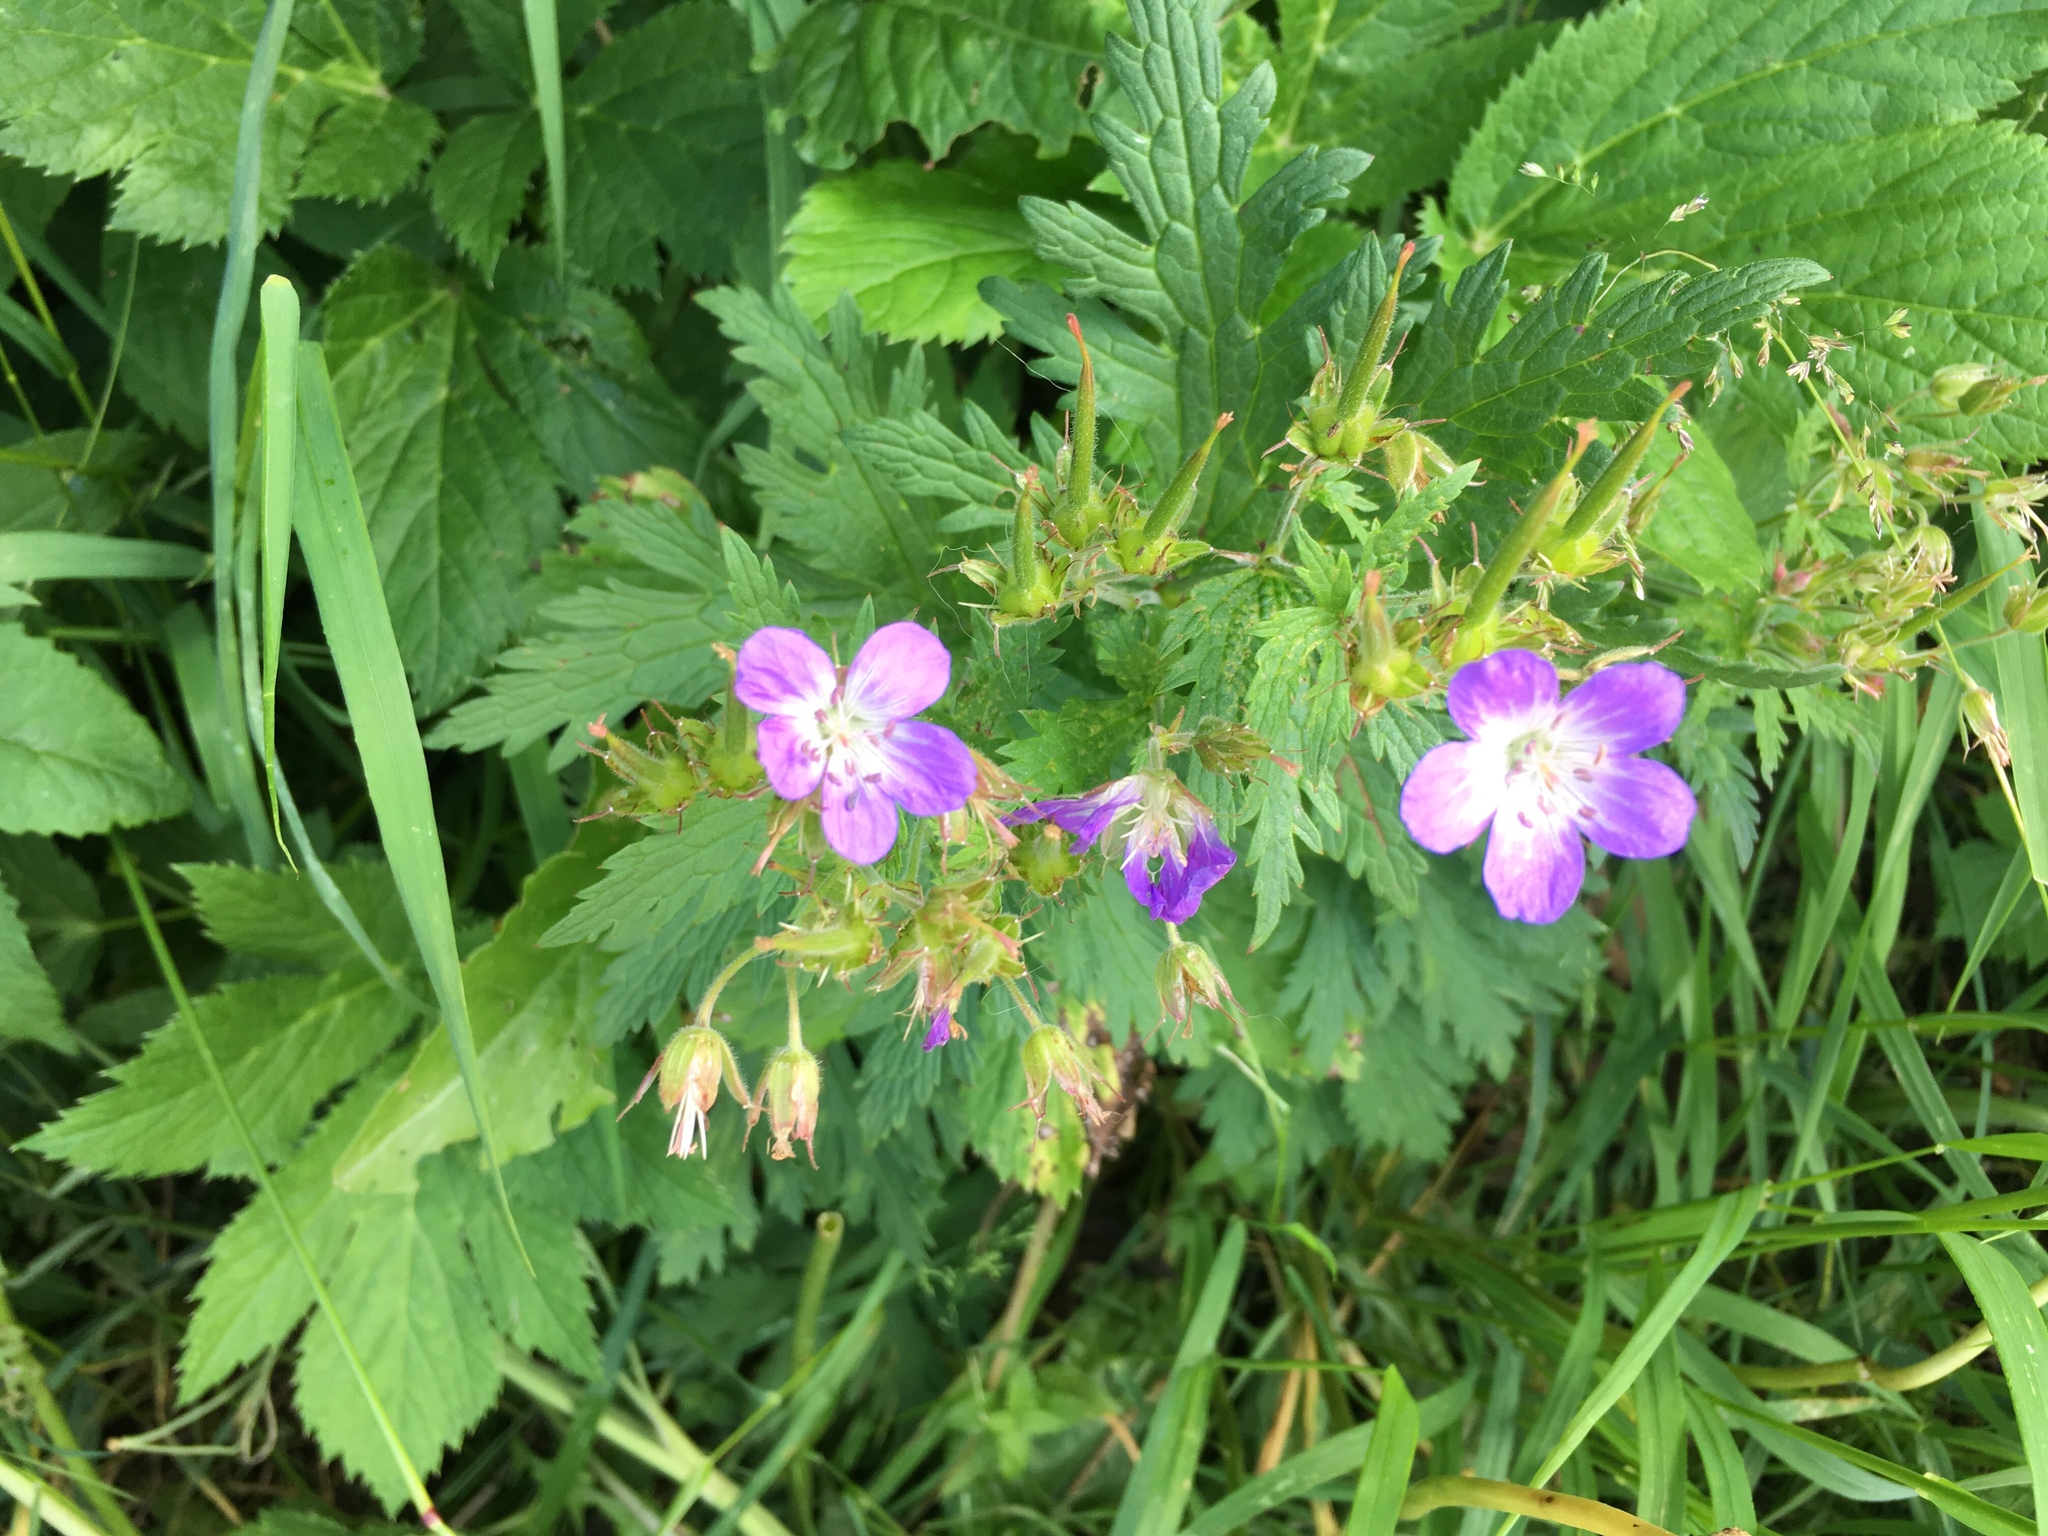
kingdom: Plantae
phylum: Tracheophyta
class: Magnoliopsida
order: Geraniales
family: Geraniaceae
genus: Geranium
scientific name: Geranium sylvaticum
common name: Wood crane's-bill
